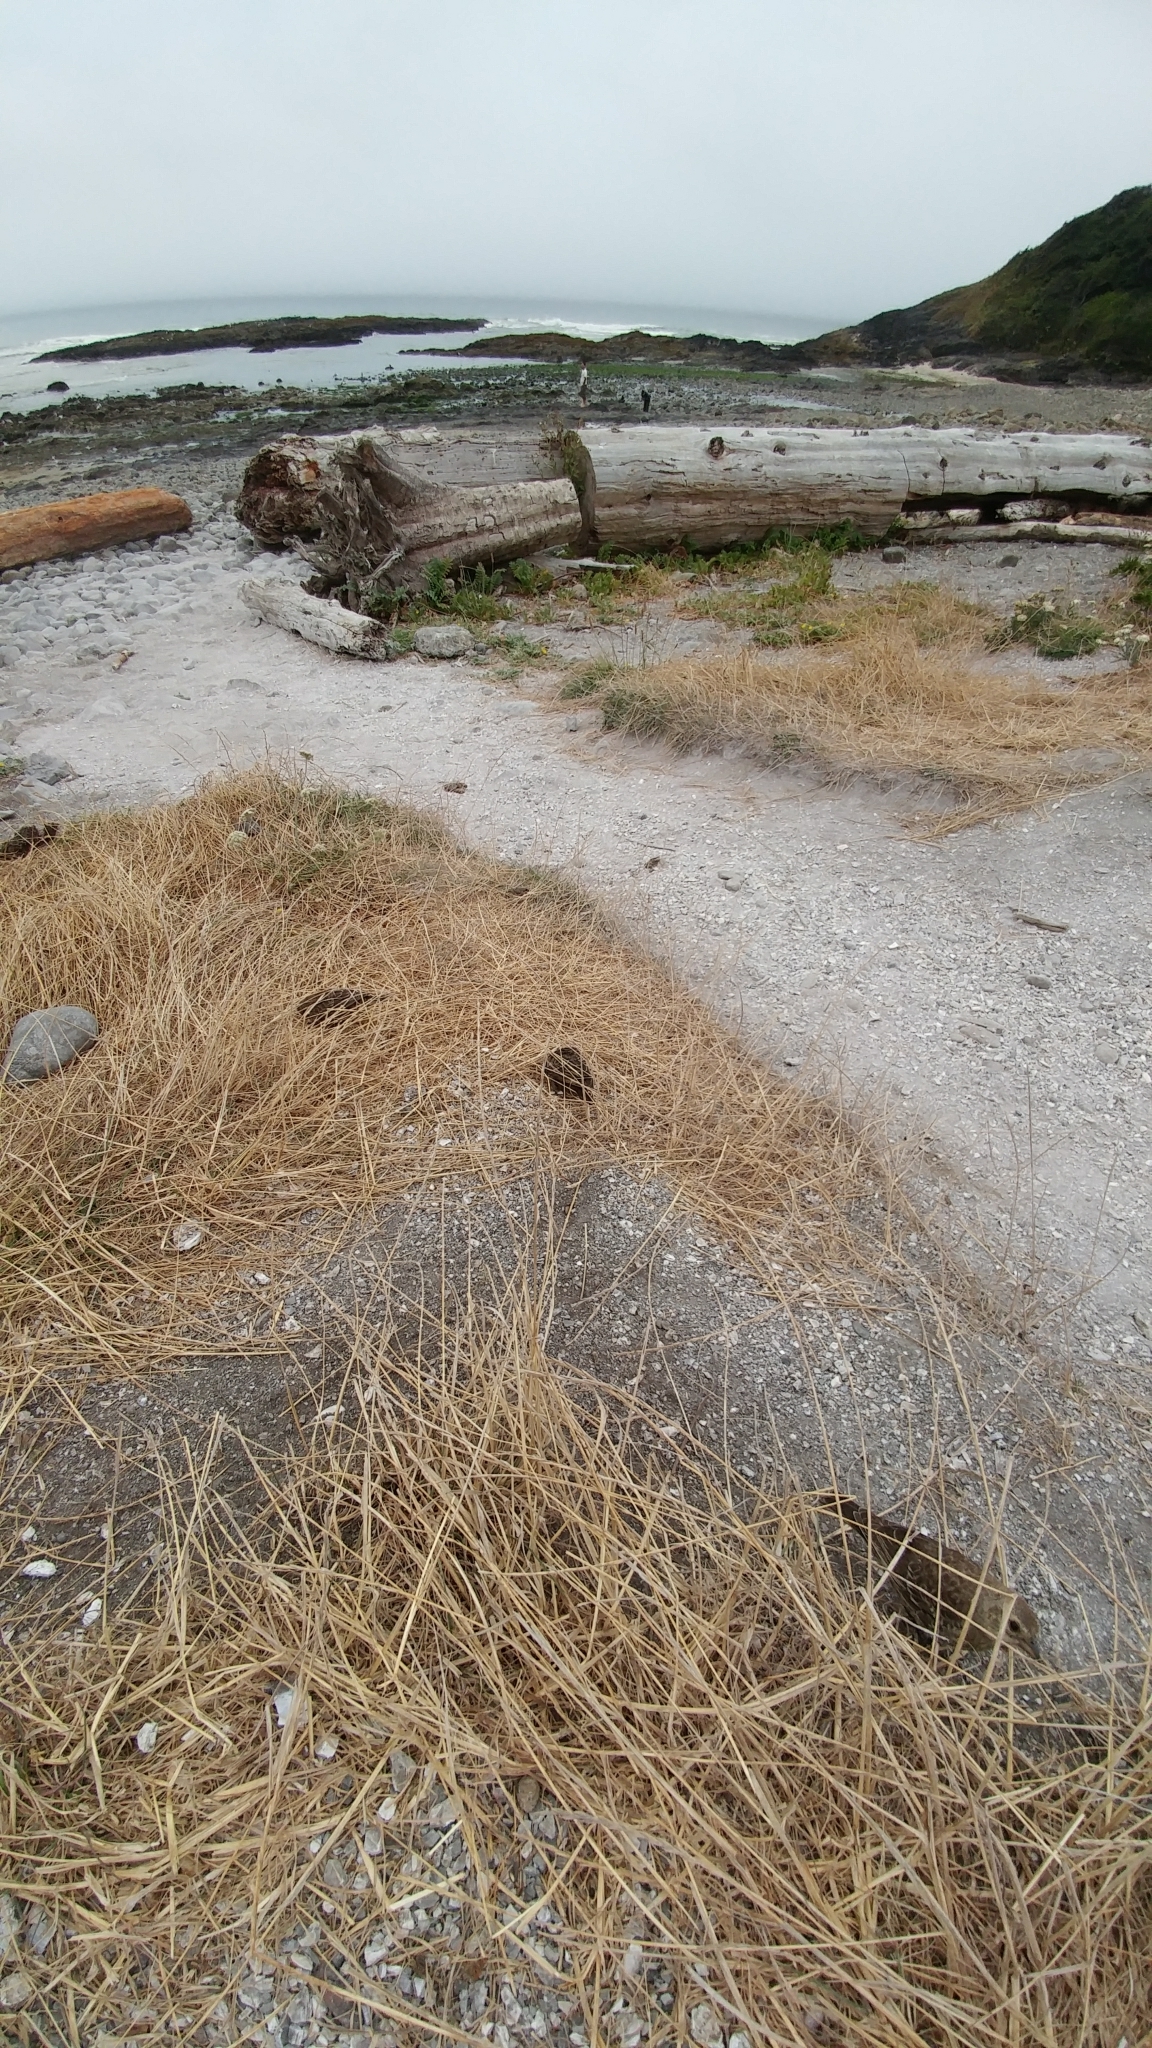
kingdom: Animalia
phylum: Chordata
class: Aves
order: Passeriformes
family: Icteridae
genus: Molothrus
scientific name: Molothrus ater
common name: Brown-headed cowbird
